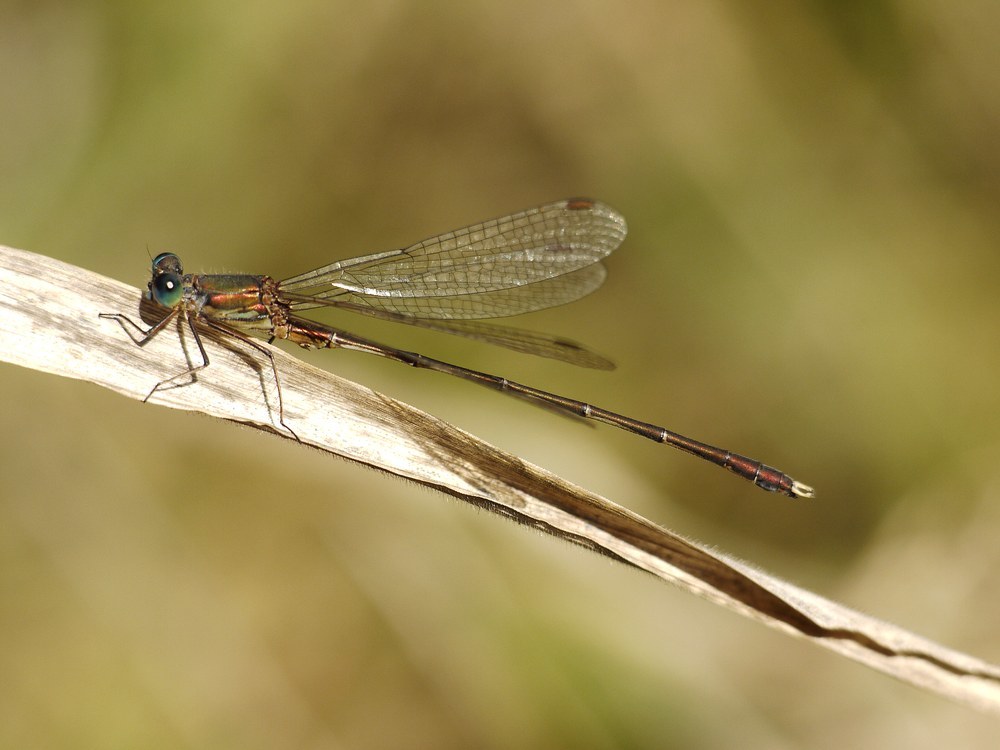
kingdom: Animalia
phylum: Arthropoda
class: Insecta
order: Odonata
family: Lestidae
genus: Chalcolestes
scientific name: Chalcolestes parvidens
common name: Eastern willow spreadwing
